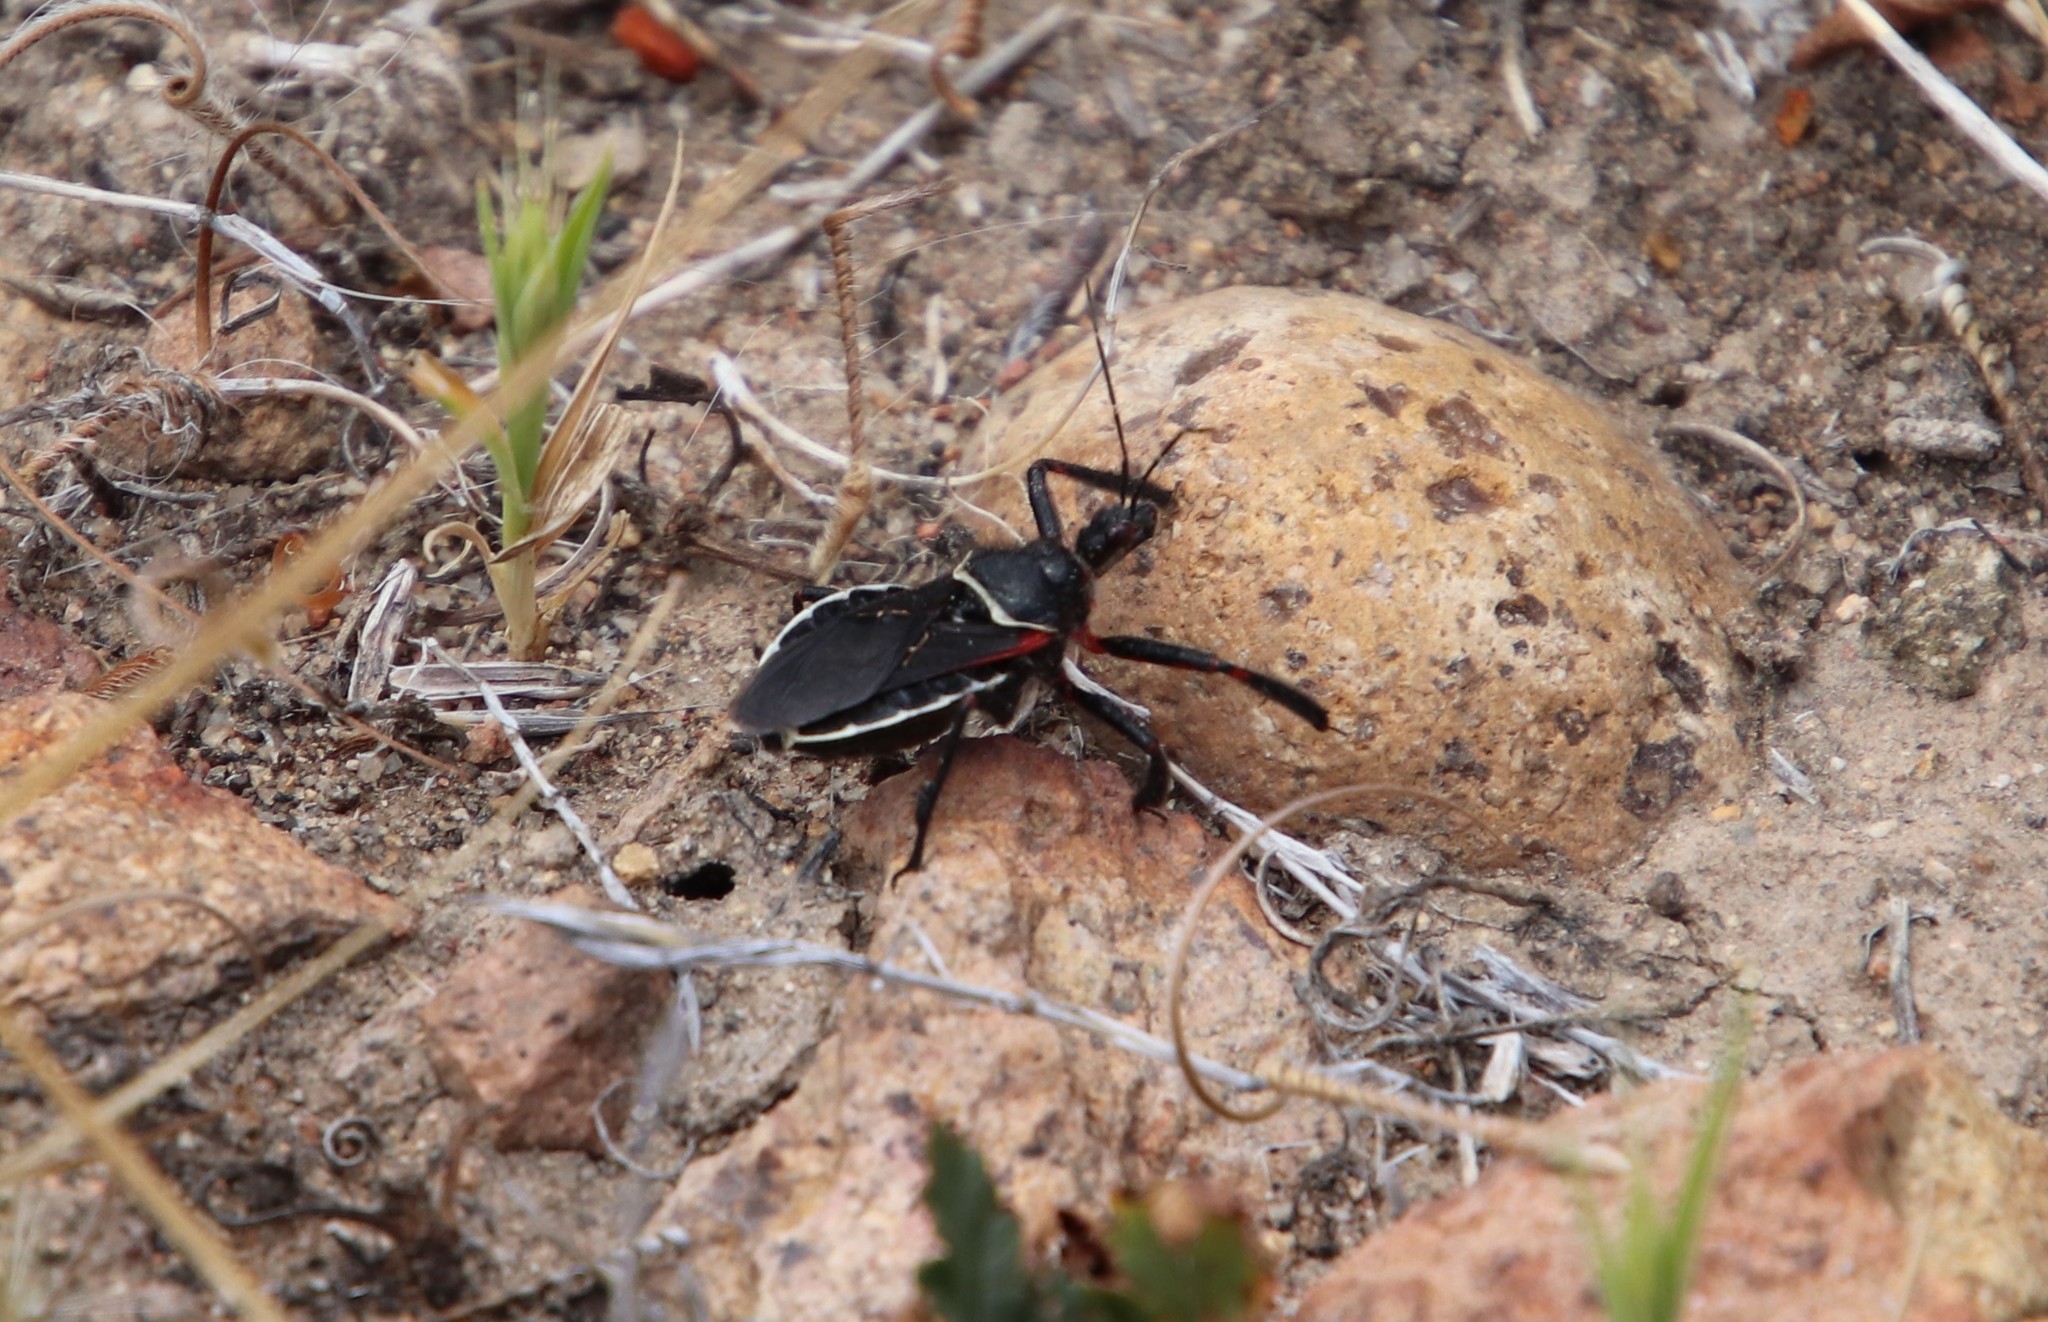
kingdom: Animalia
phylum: Arthropoda
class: Insecta
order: Hemiptera
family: Reduviidae
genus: Apiomerus
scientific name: Apiomerus californicus
